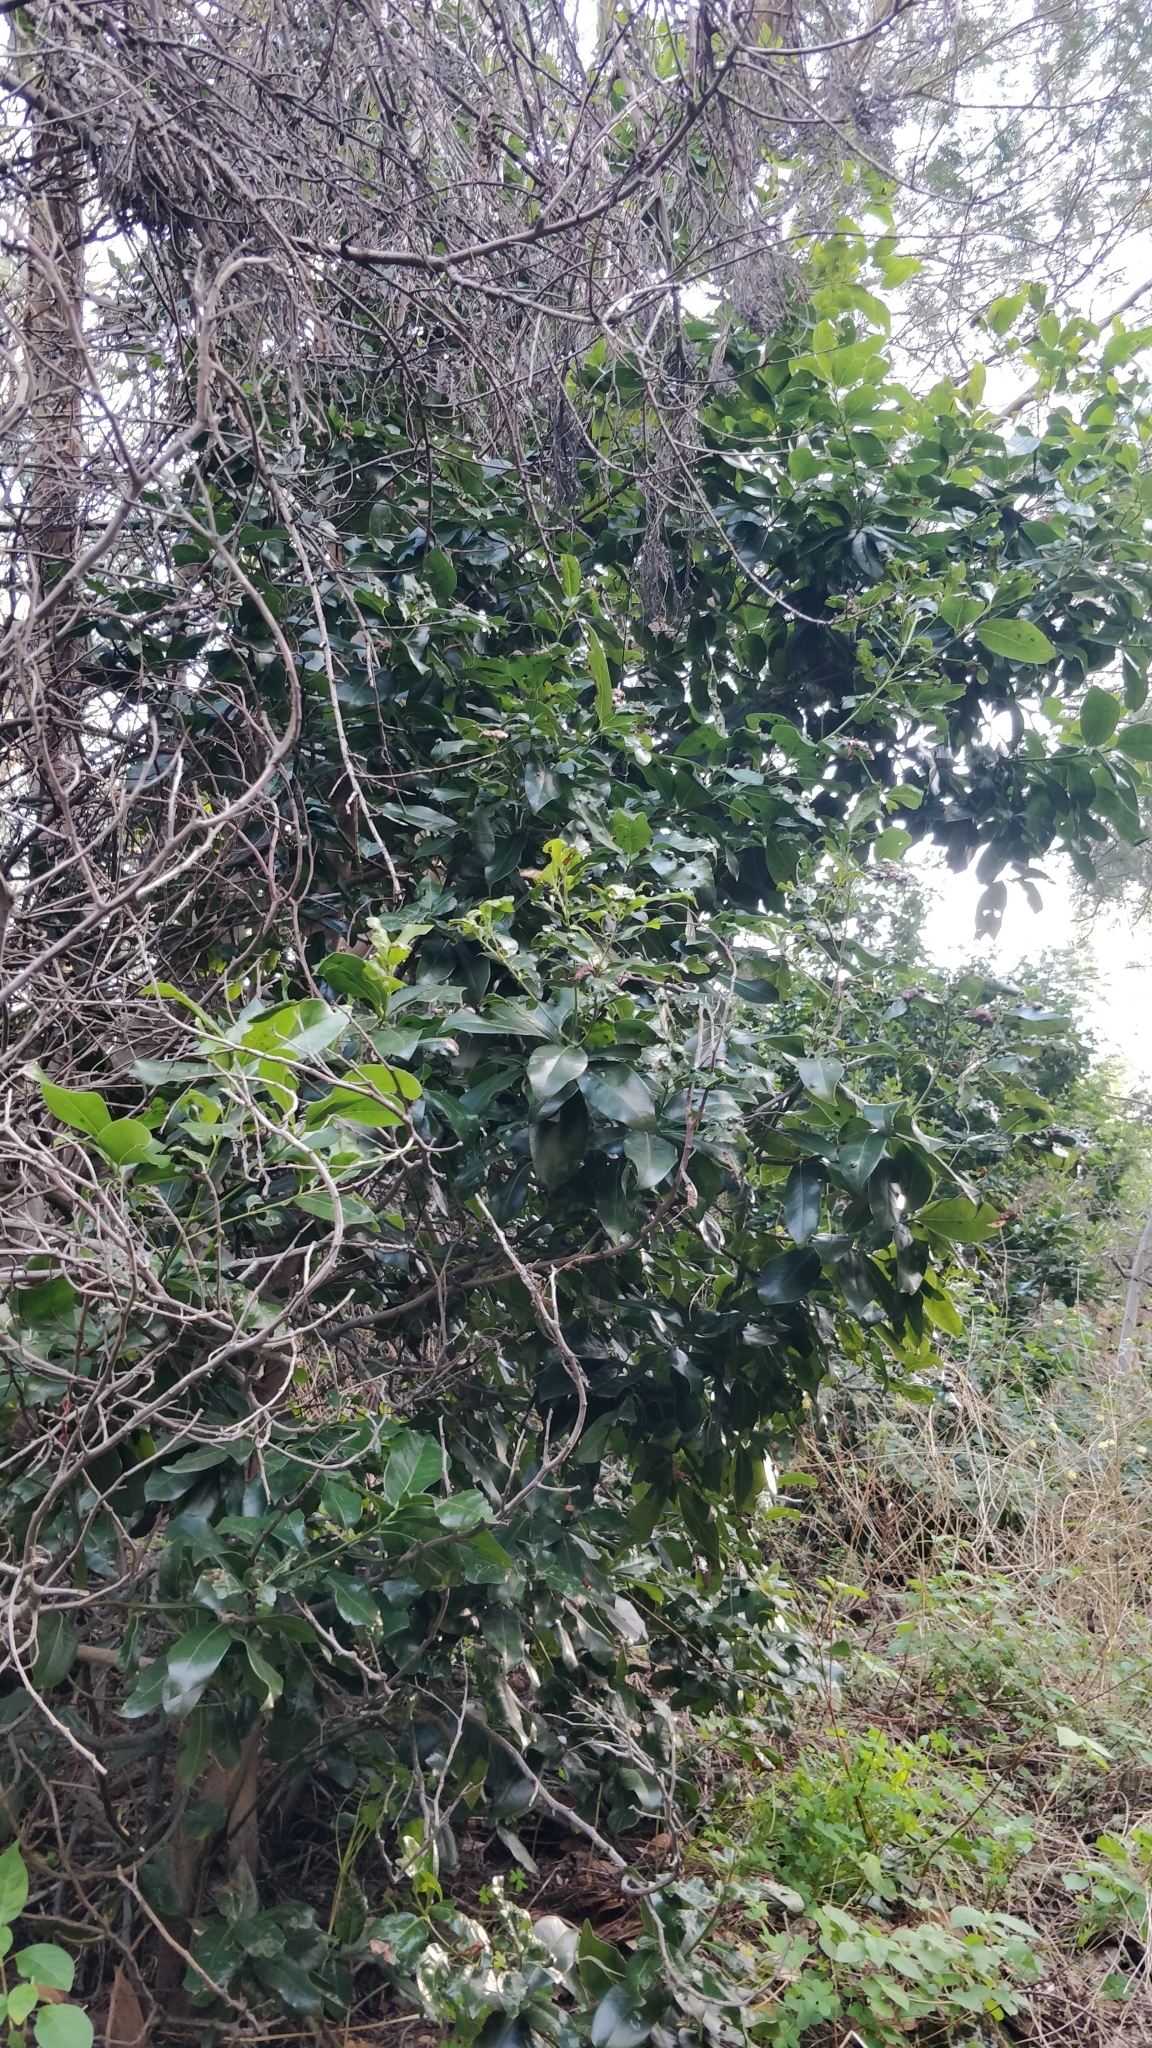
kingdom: Plantae
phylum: Tracheophyta
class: Magnoliopsida
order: Laurales
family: Lauraceae
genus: Apollonias
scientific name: Apollonias barbujana
